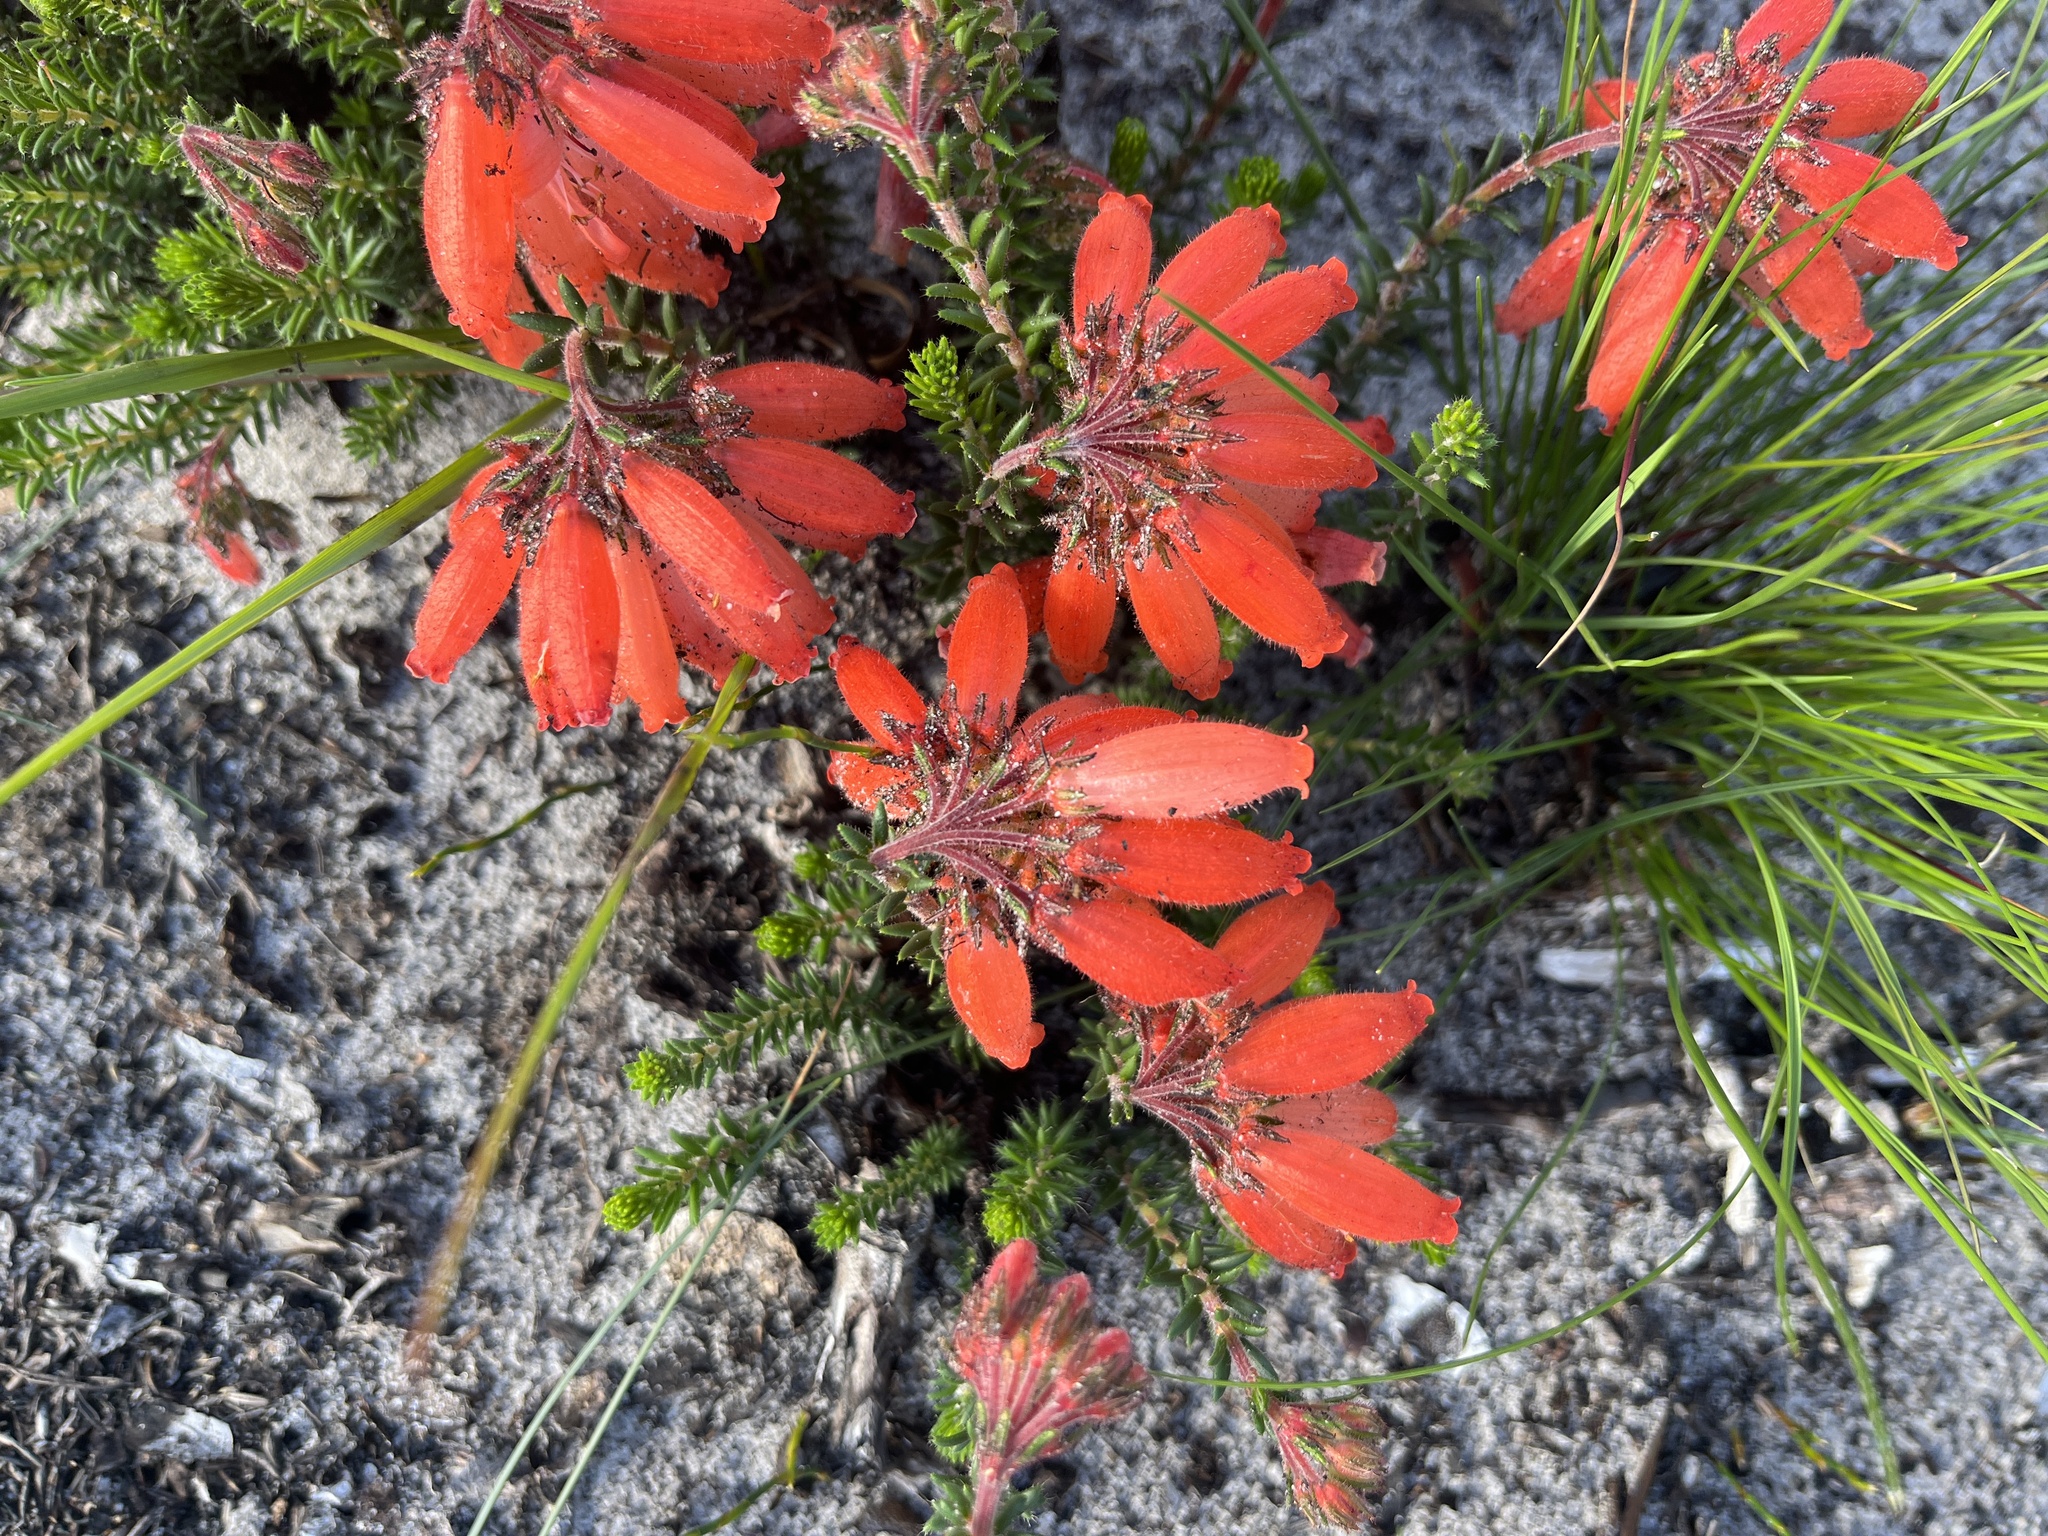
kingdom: Plantae
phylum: Tracheophyta
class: Magnoliopsida
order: Ericales
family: Ericaceae
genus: Erica
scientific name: Erica cerinthoides
